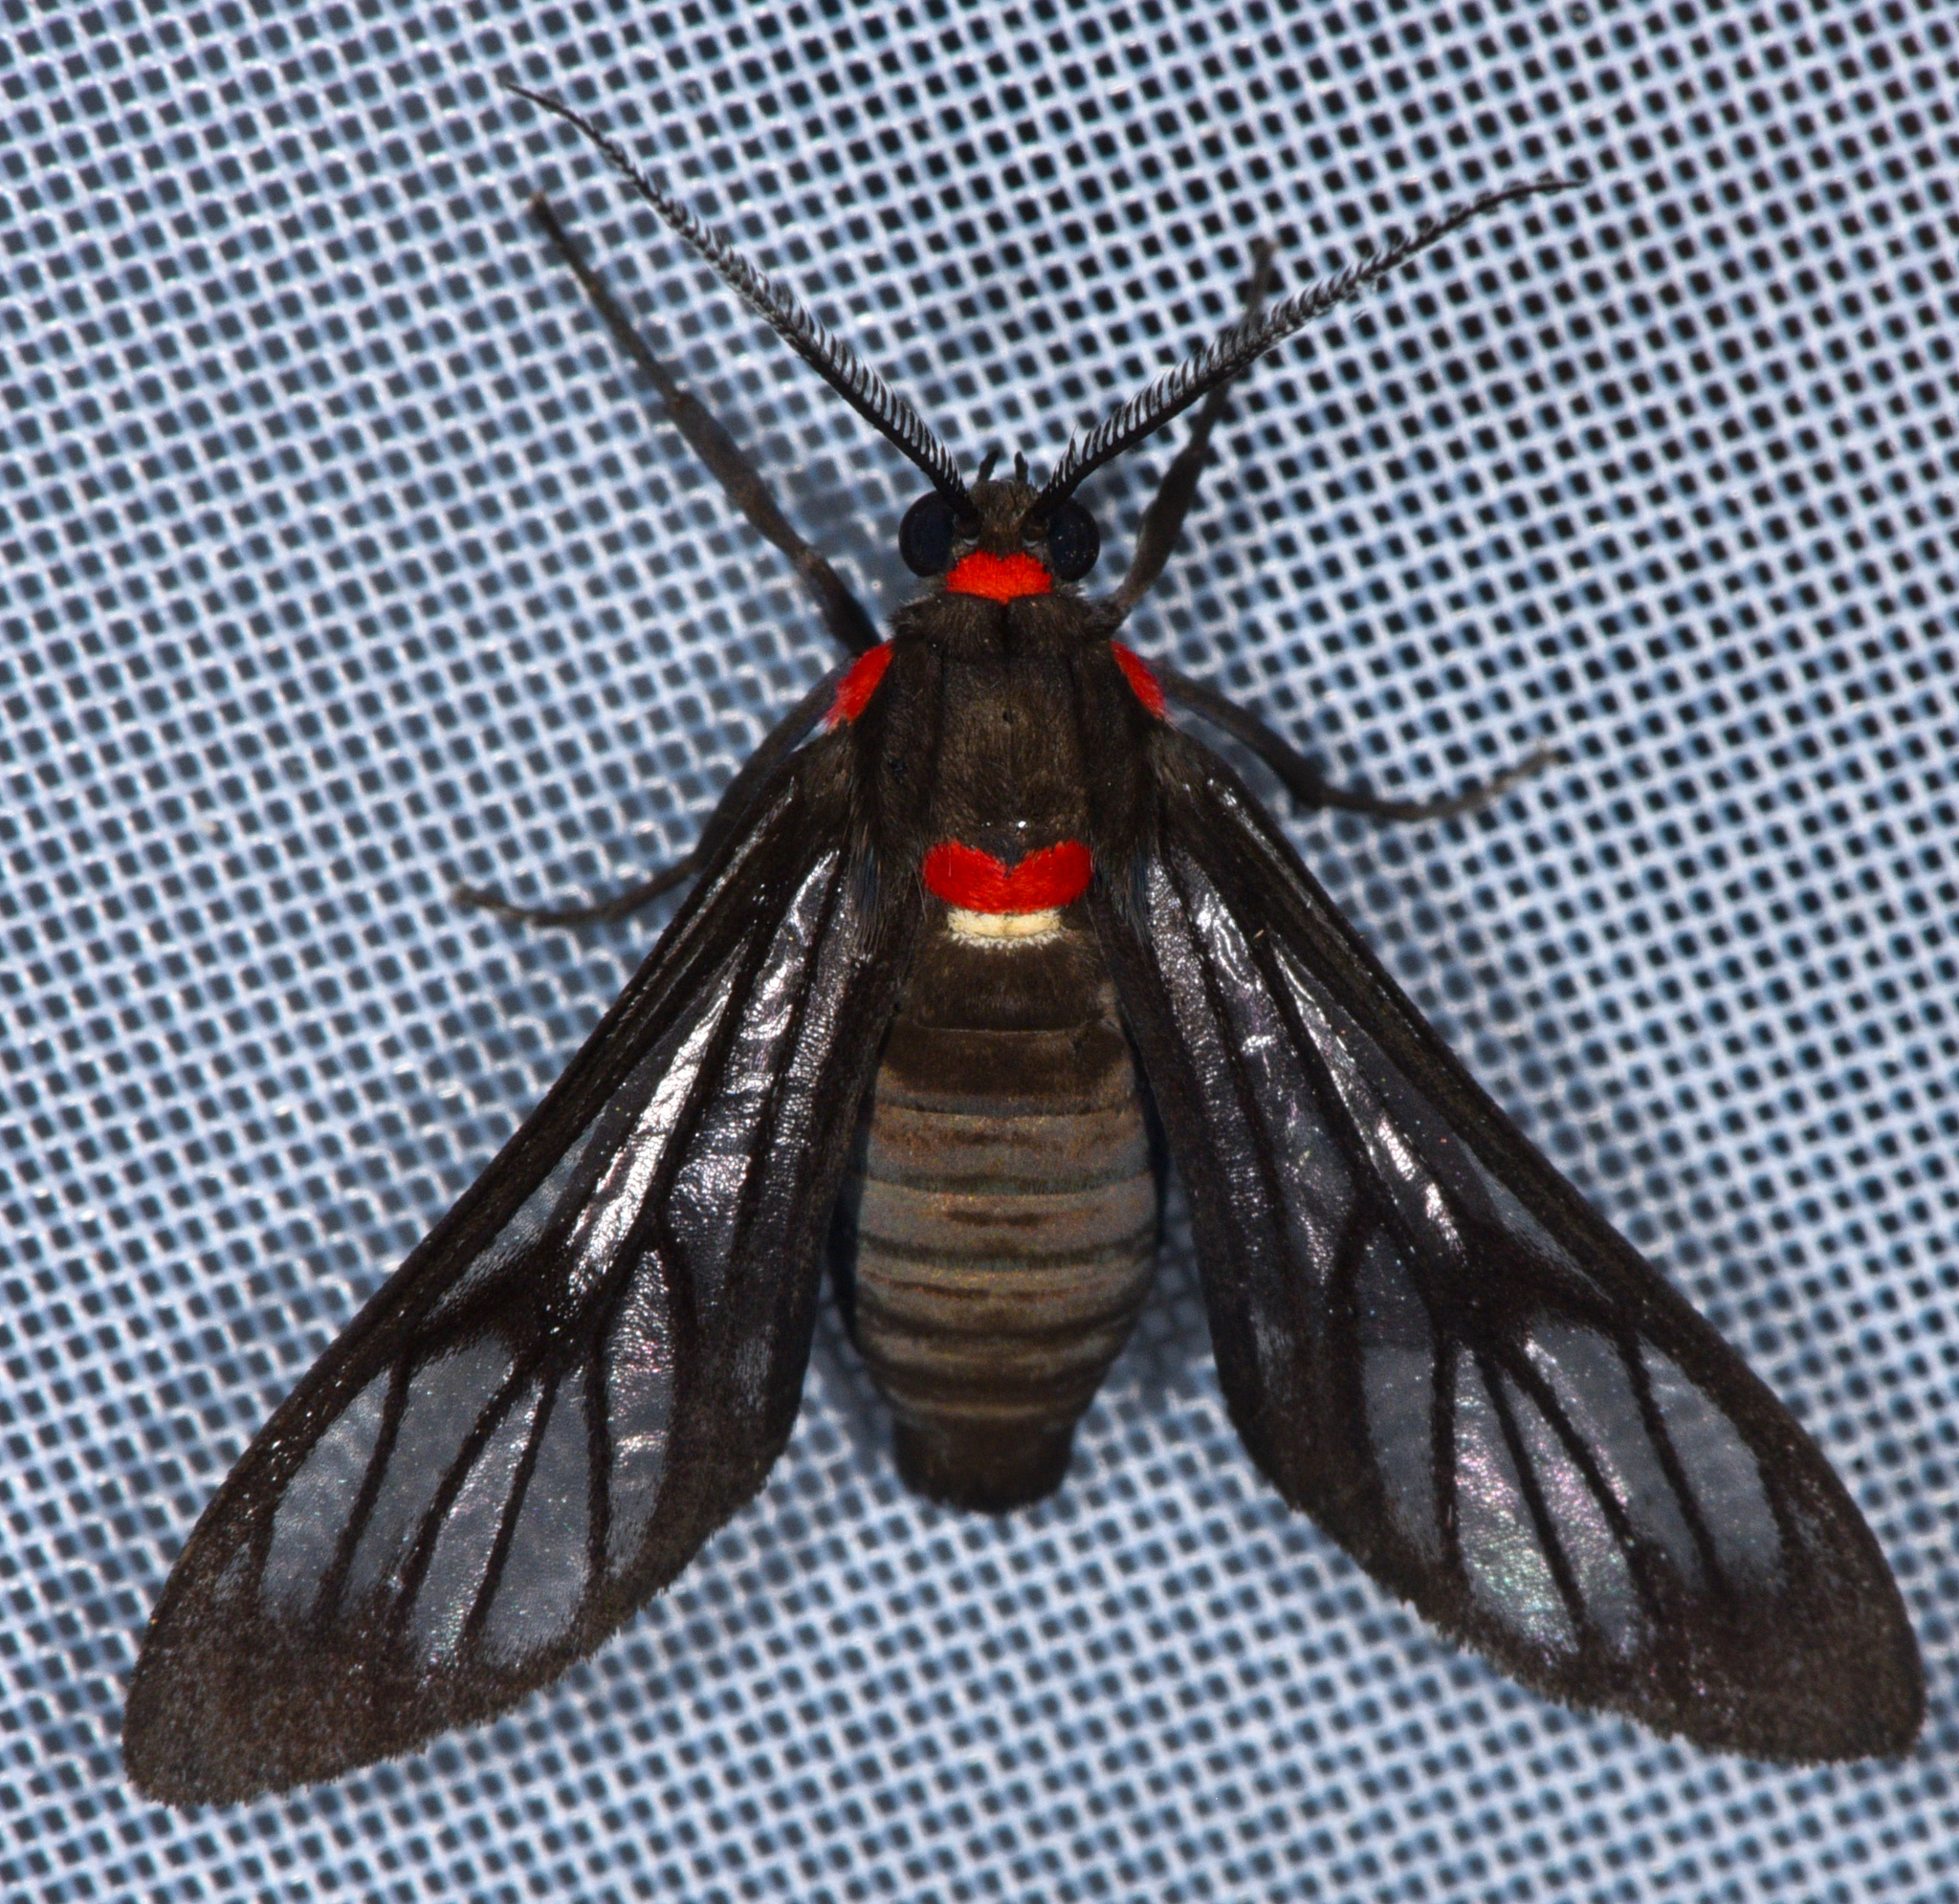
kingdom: Animalia
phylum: Arthropoda
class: Insecta
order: Lepidoptera
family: Erebidae
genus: Saurita
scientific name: Saurita phoenicosticta
